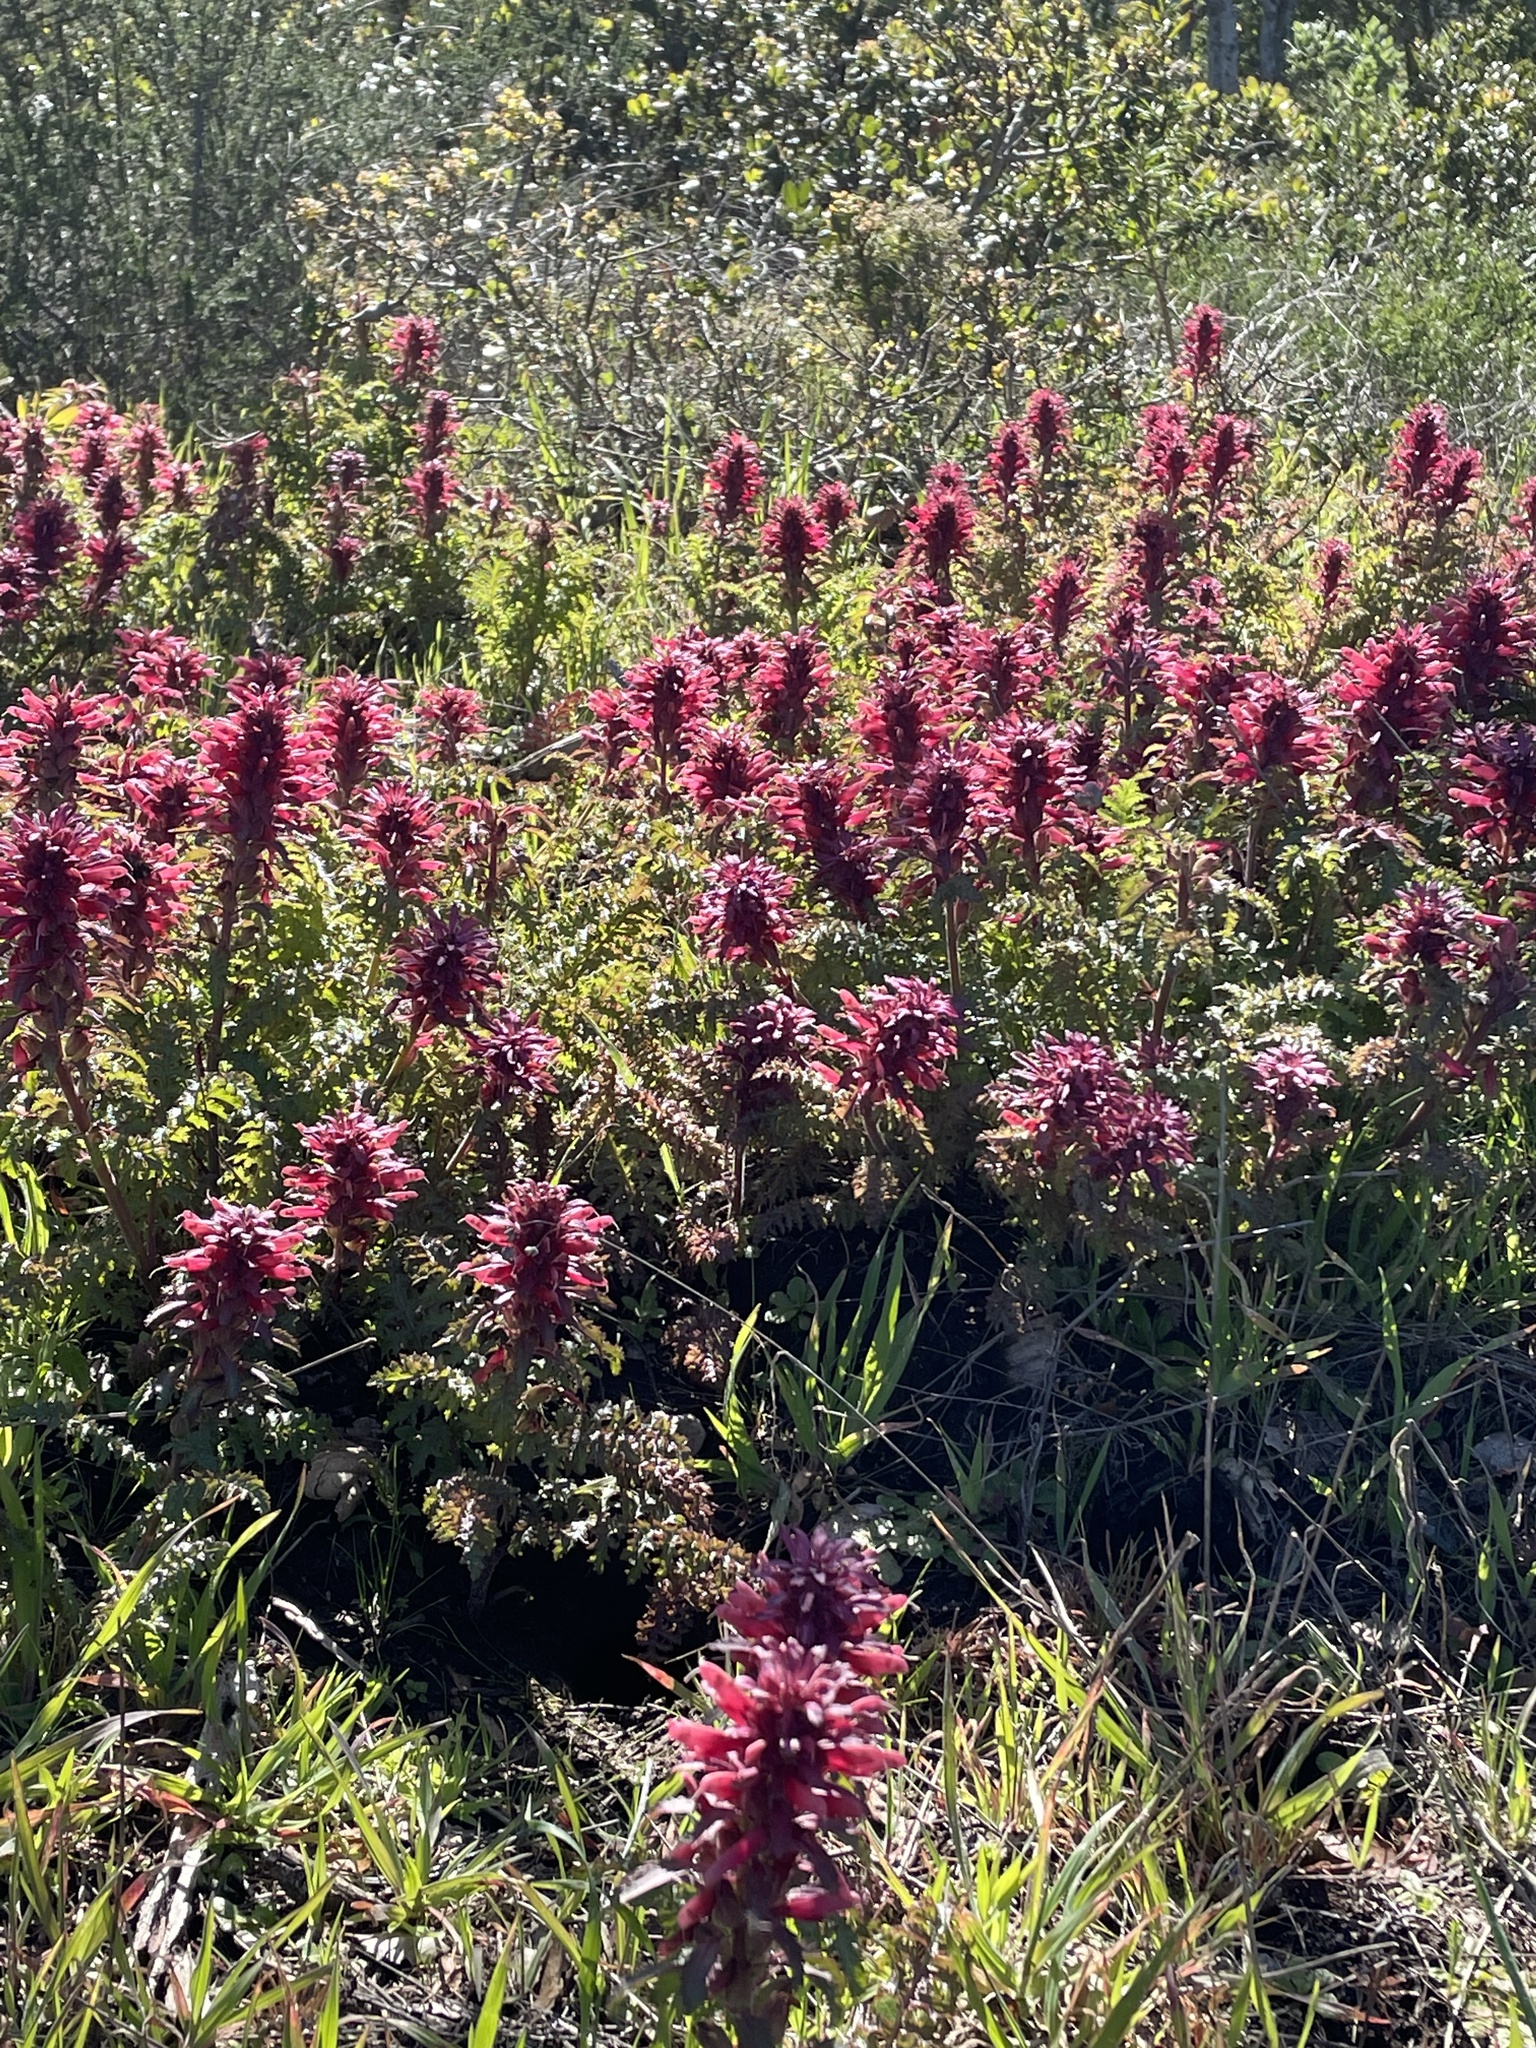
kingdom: Plantae
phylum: Tracheophyta
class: Magnoliopsida
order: Lamiales
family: Orobanchaceae
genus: Pedicularis
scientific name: Pedicularis densiflora
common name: Indian warrior
